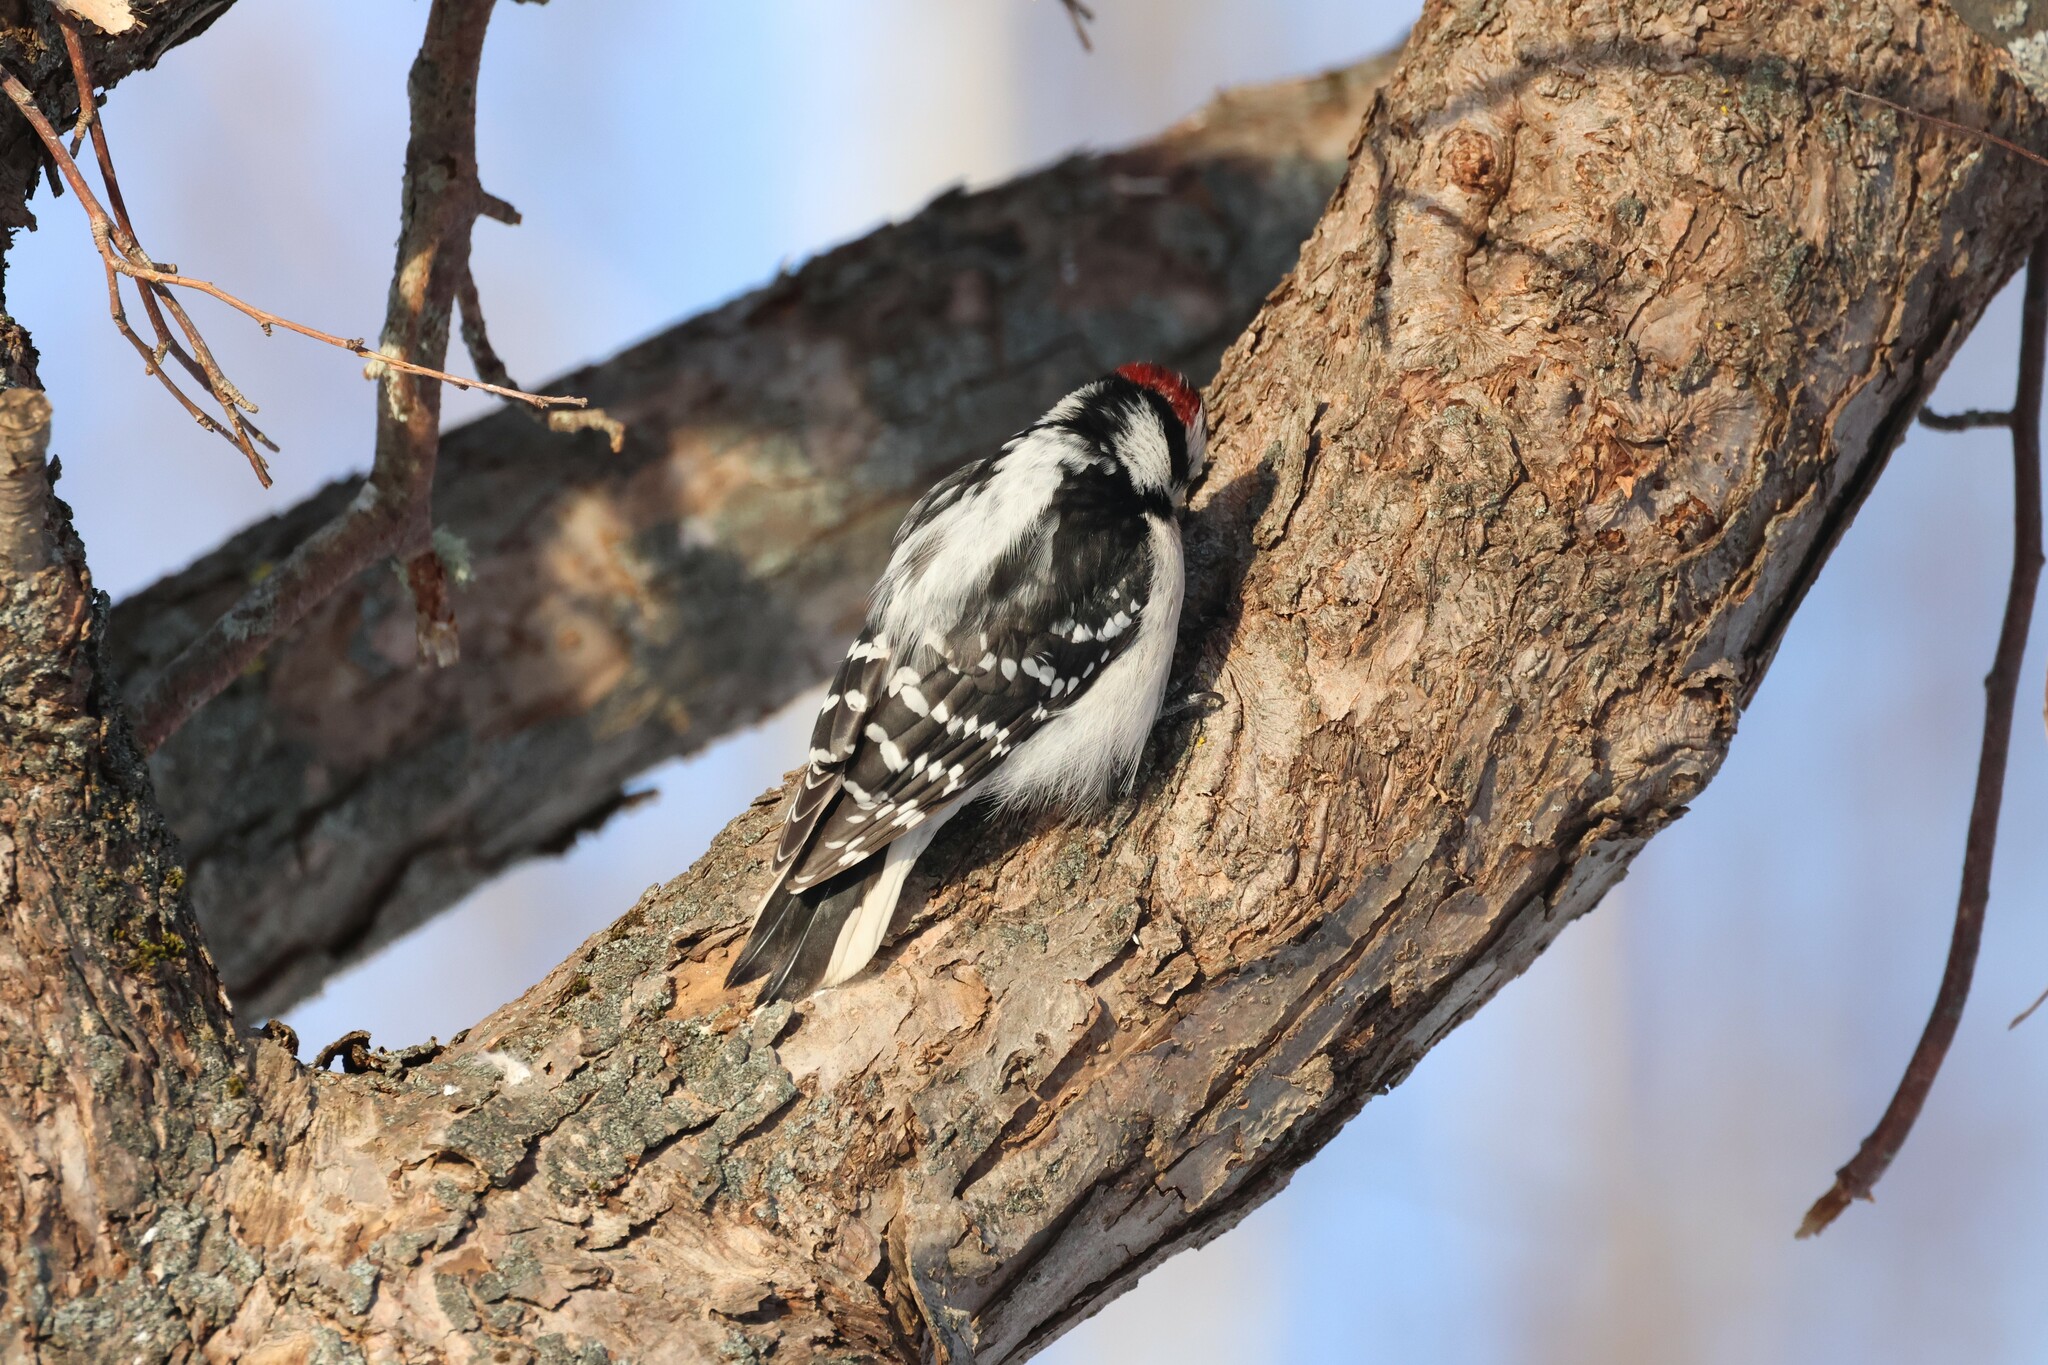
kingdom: Animalia
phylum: Chordata
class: Aves
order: Piciformes
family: Picidae
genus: Dryobates
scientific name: Dryobates pubescens
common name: Downy woodpecker
